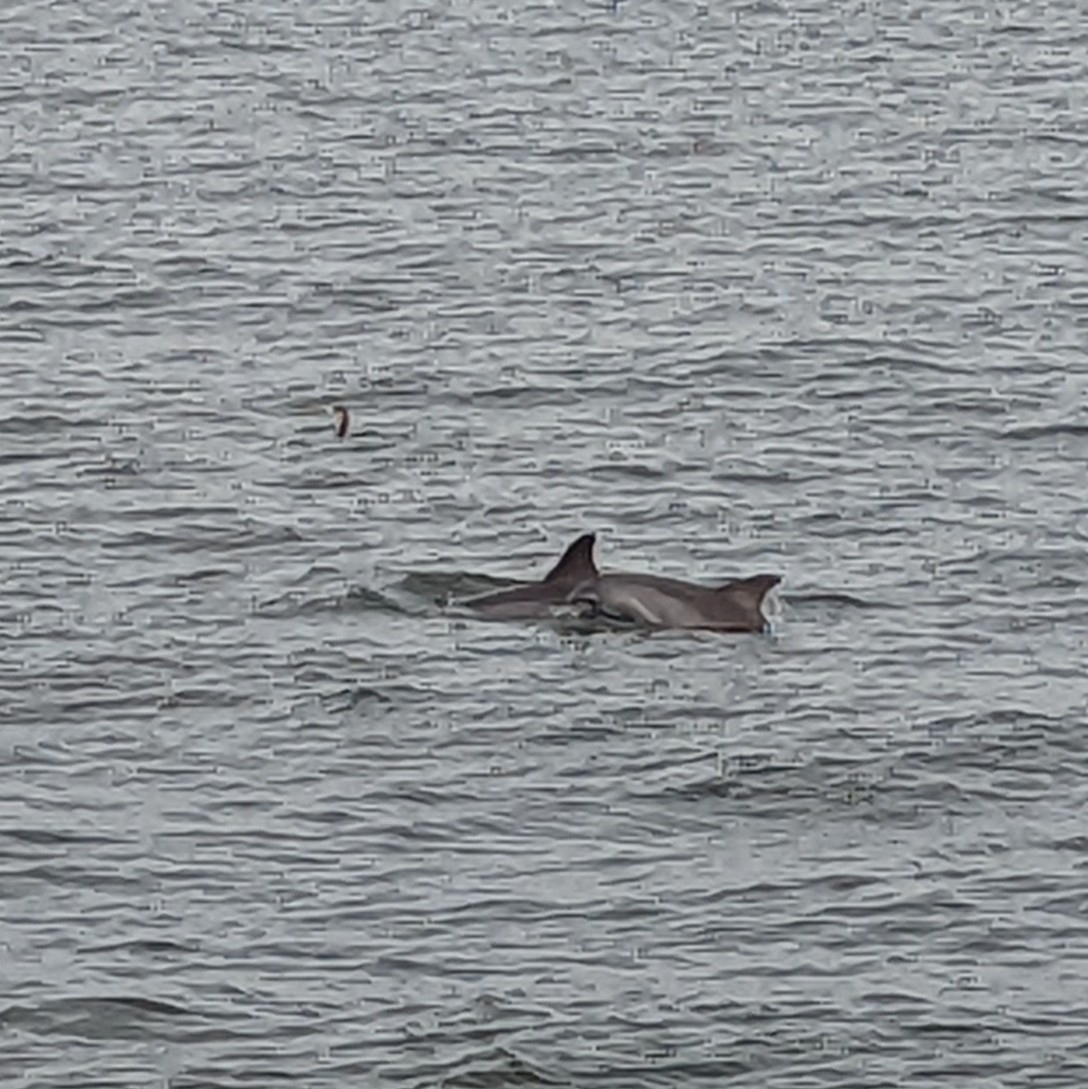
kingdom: Animalia
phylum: Chordata
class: Mammalia
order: Cetacea
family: Delphinidae
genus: Tursiops
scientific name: Tursiops truncatus
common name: Bottlenose dolphin
